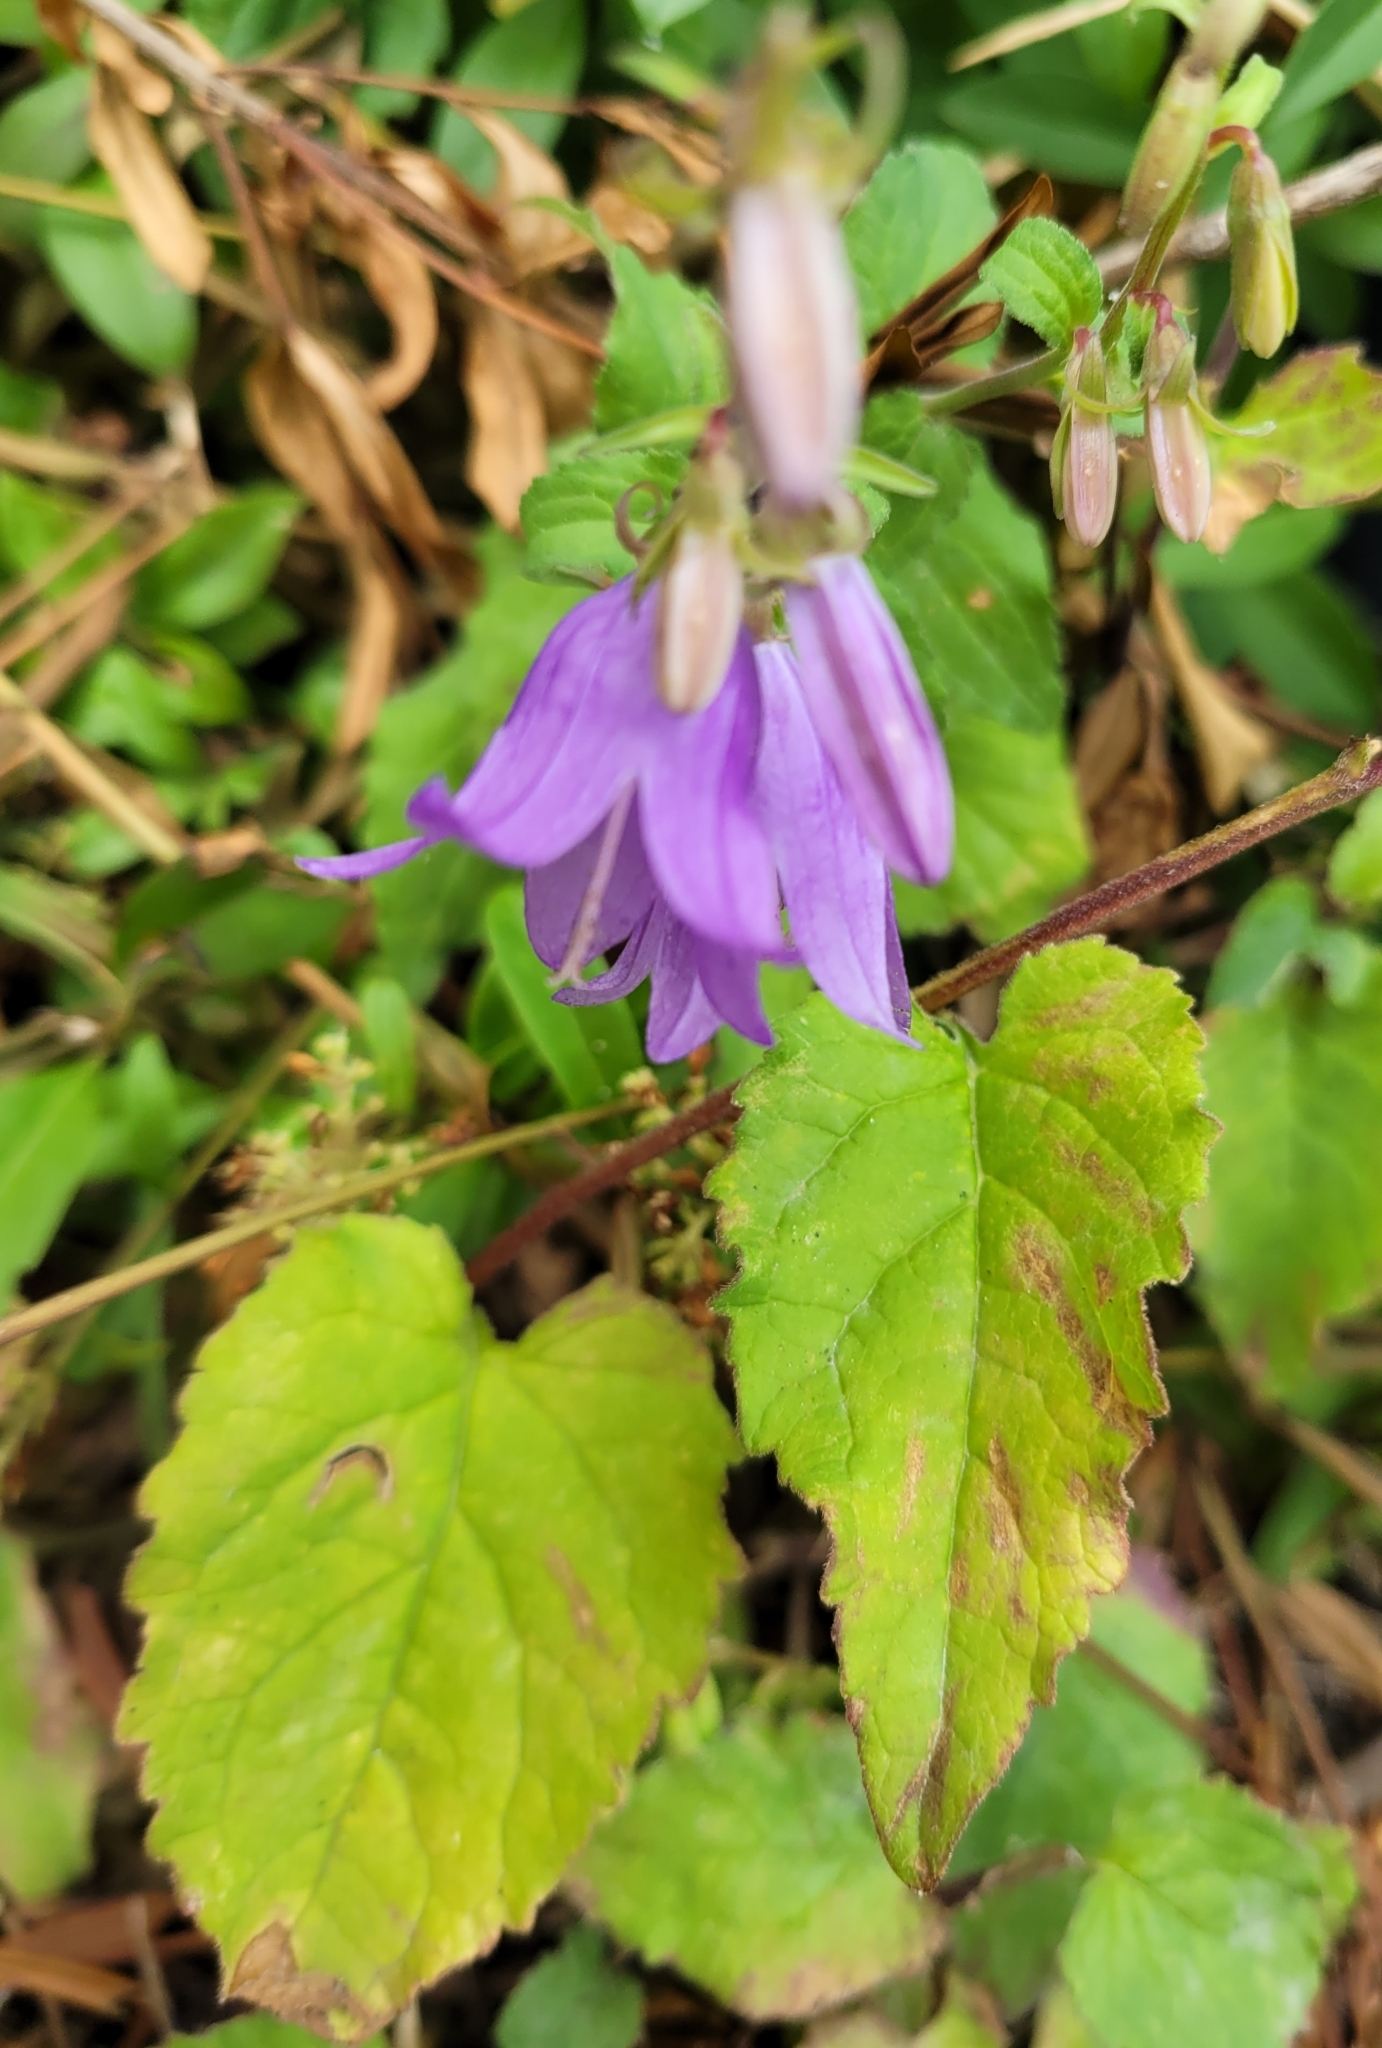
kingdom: Plantae
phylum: Tracheophyta
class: Magnoliopsida
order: Asterales
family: Campanulaceae
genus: Campanula
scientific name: Campanula rapunculoides
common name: Creeping bellflower
